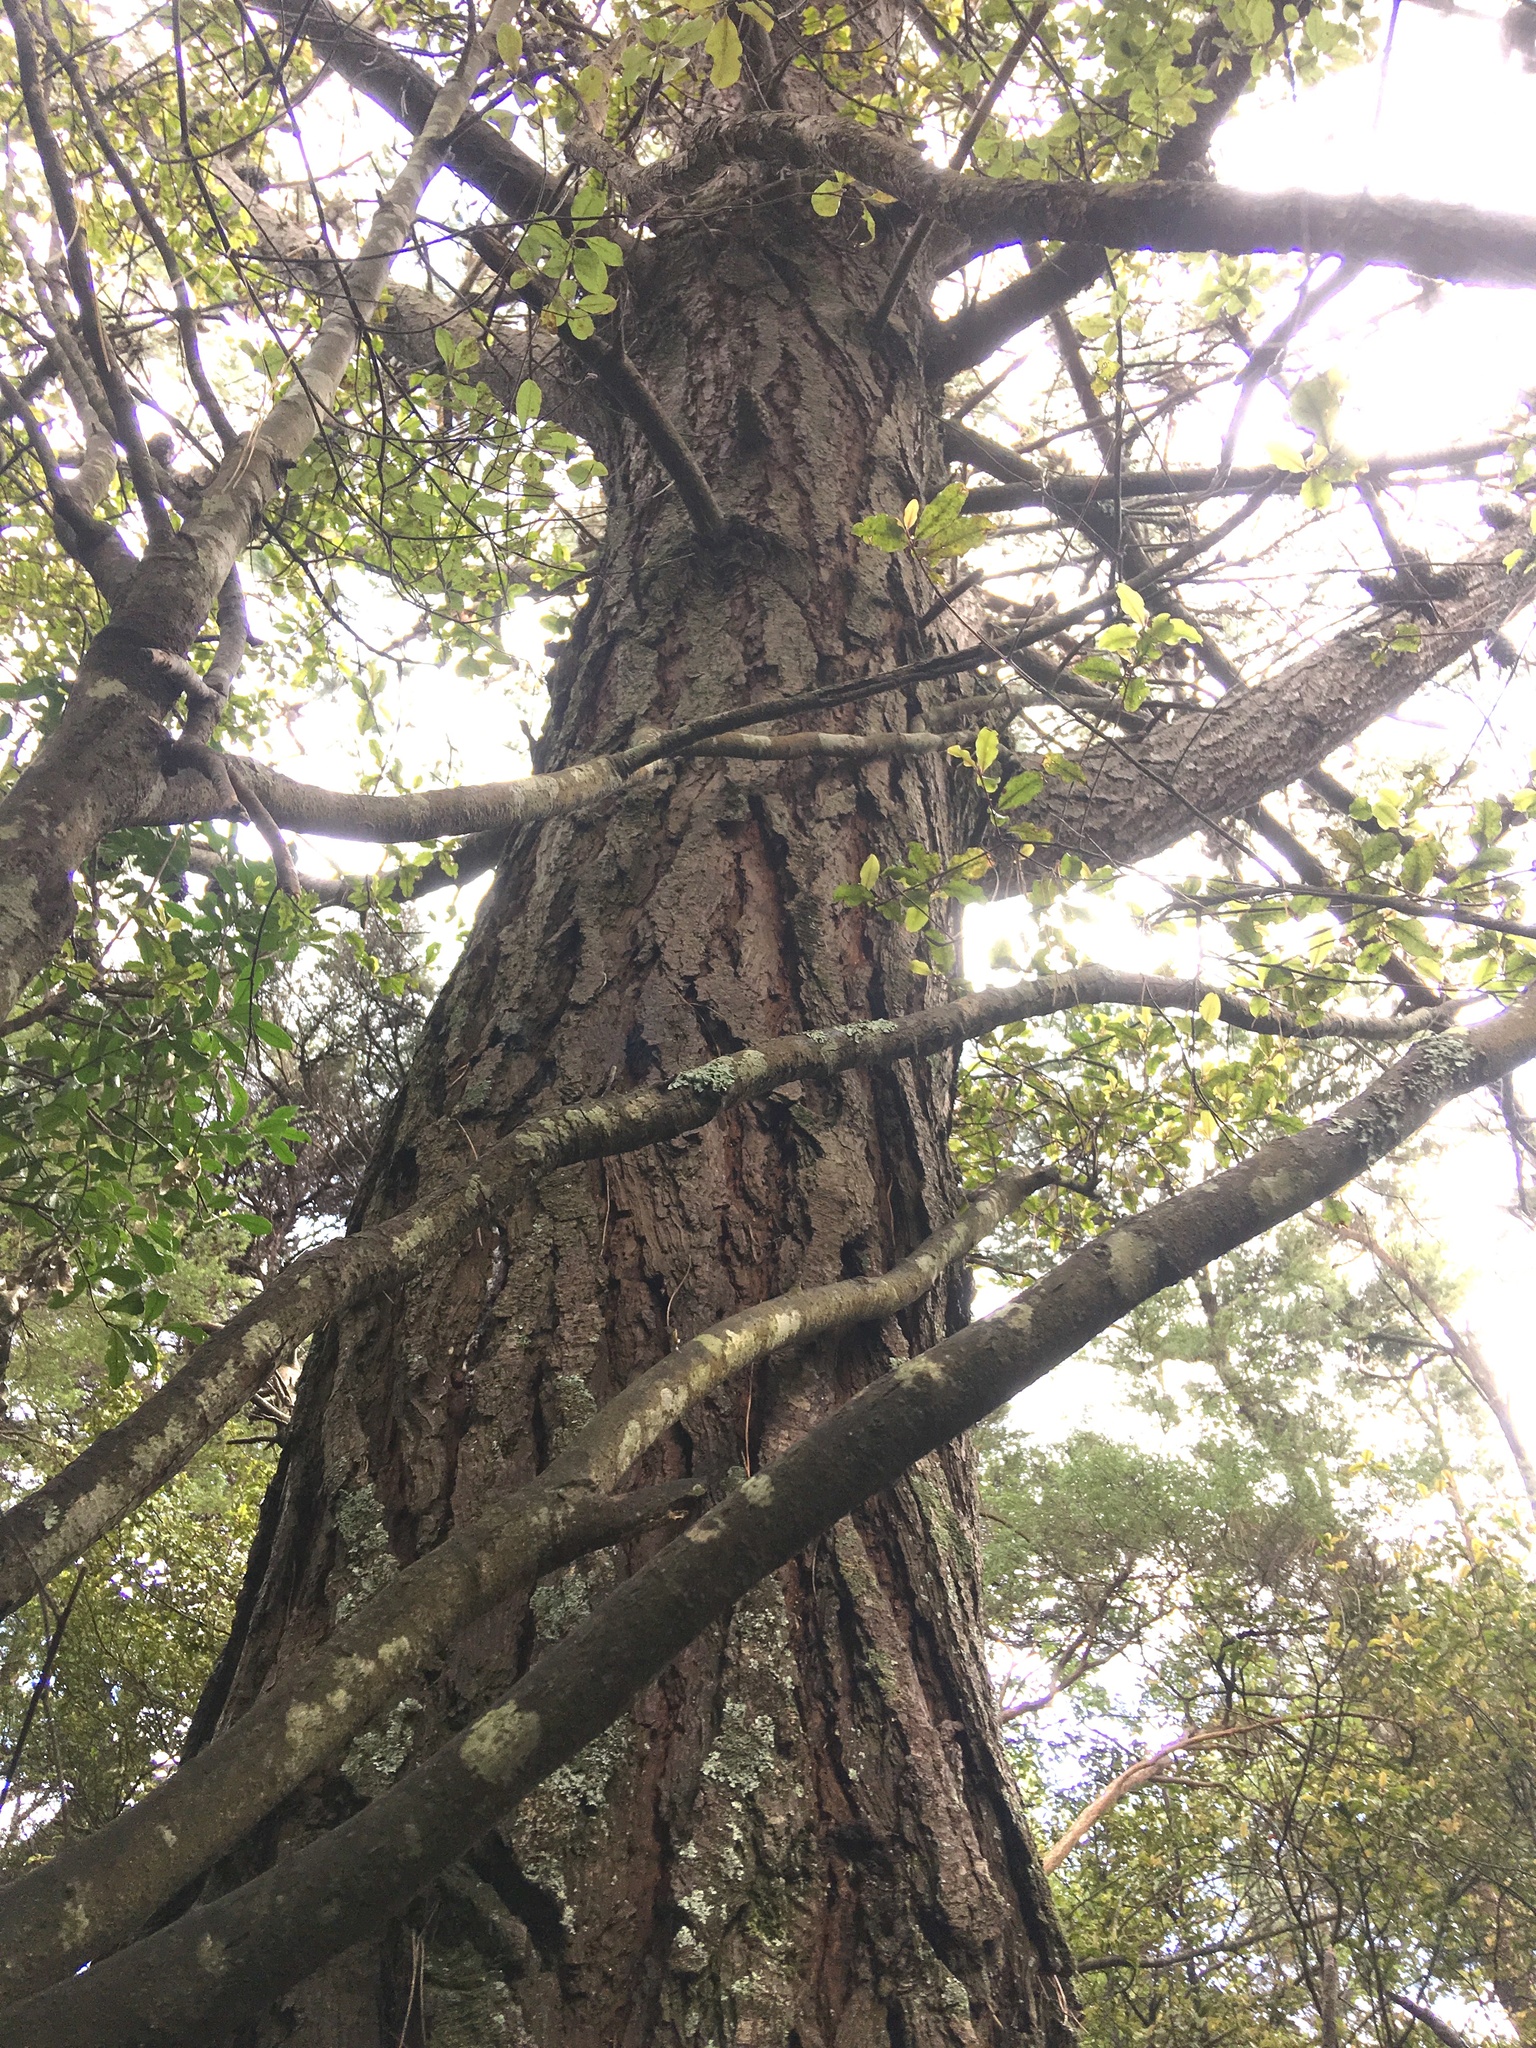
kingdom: Plantae
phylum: Tracheophyta
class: Pinopsida
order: Pinales
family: Pinaceae
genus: Pinus
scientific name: Pinus radiata
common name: Monterey pine
